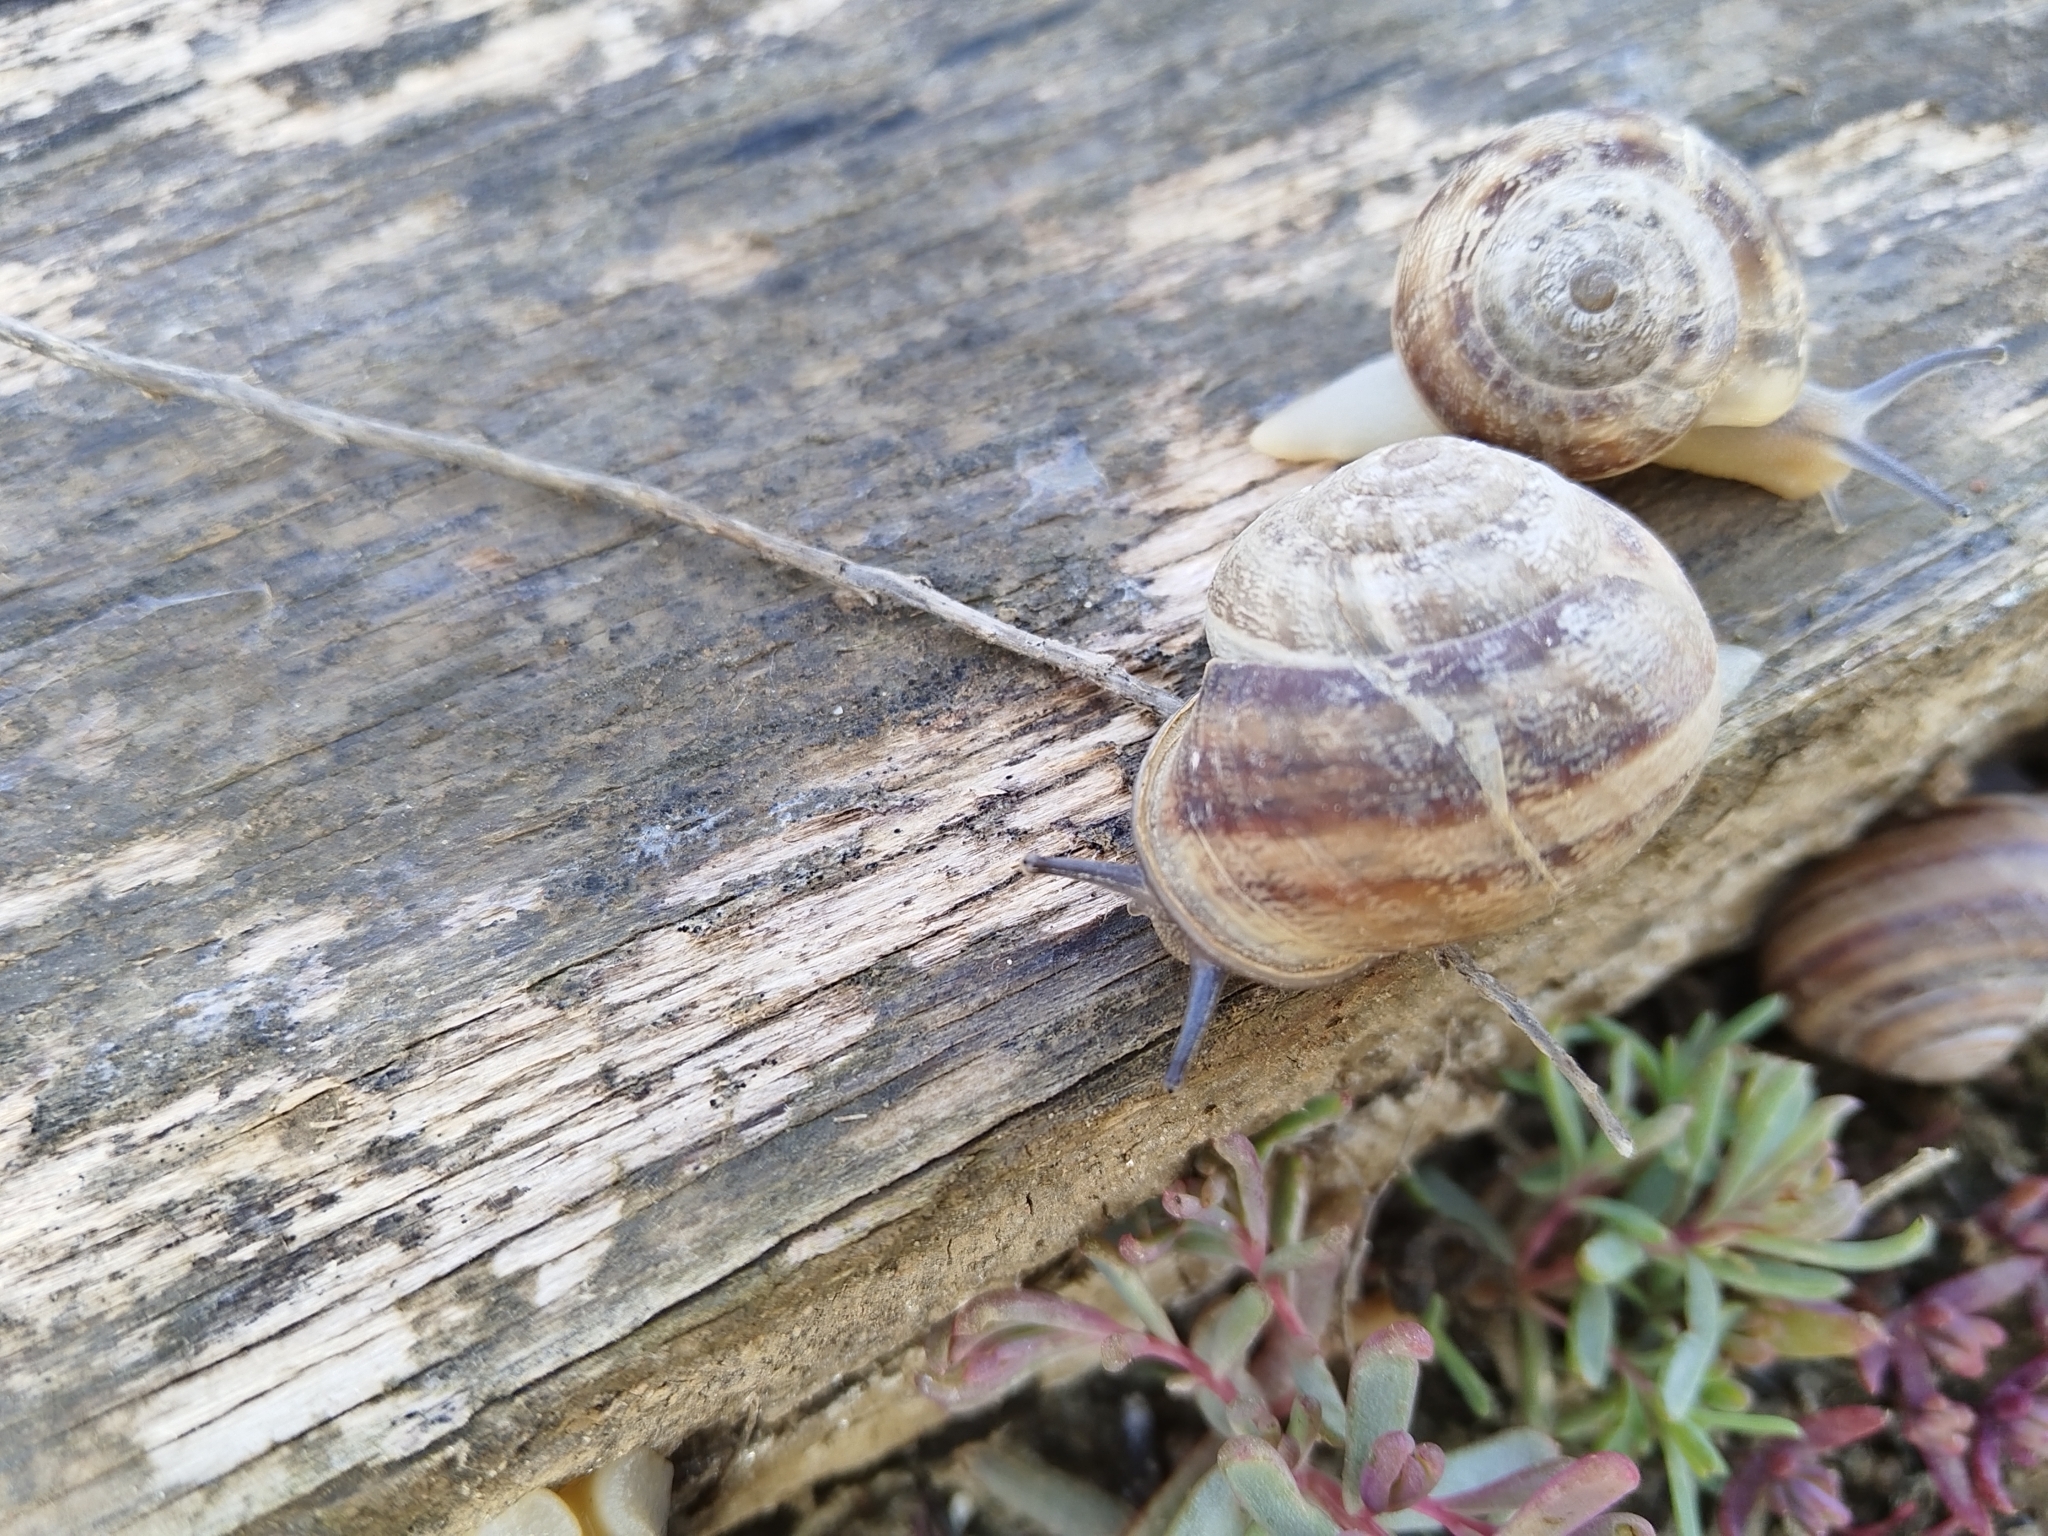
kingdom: Animalia
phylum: Mollusca
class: Gastropoda
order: Stylommatophora
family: Helicidae
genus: Eobania
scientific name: Eobania vermiculata
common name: Chocolateband snail
